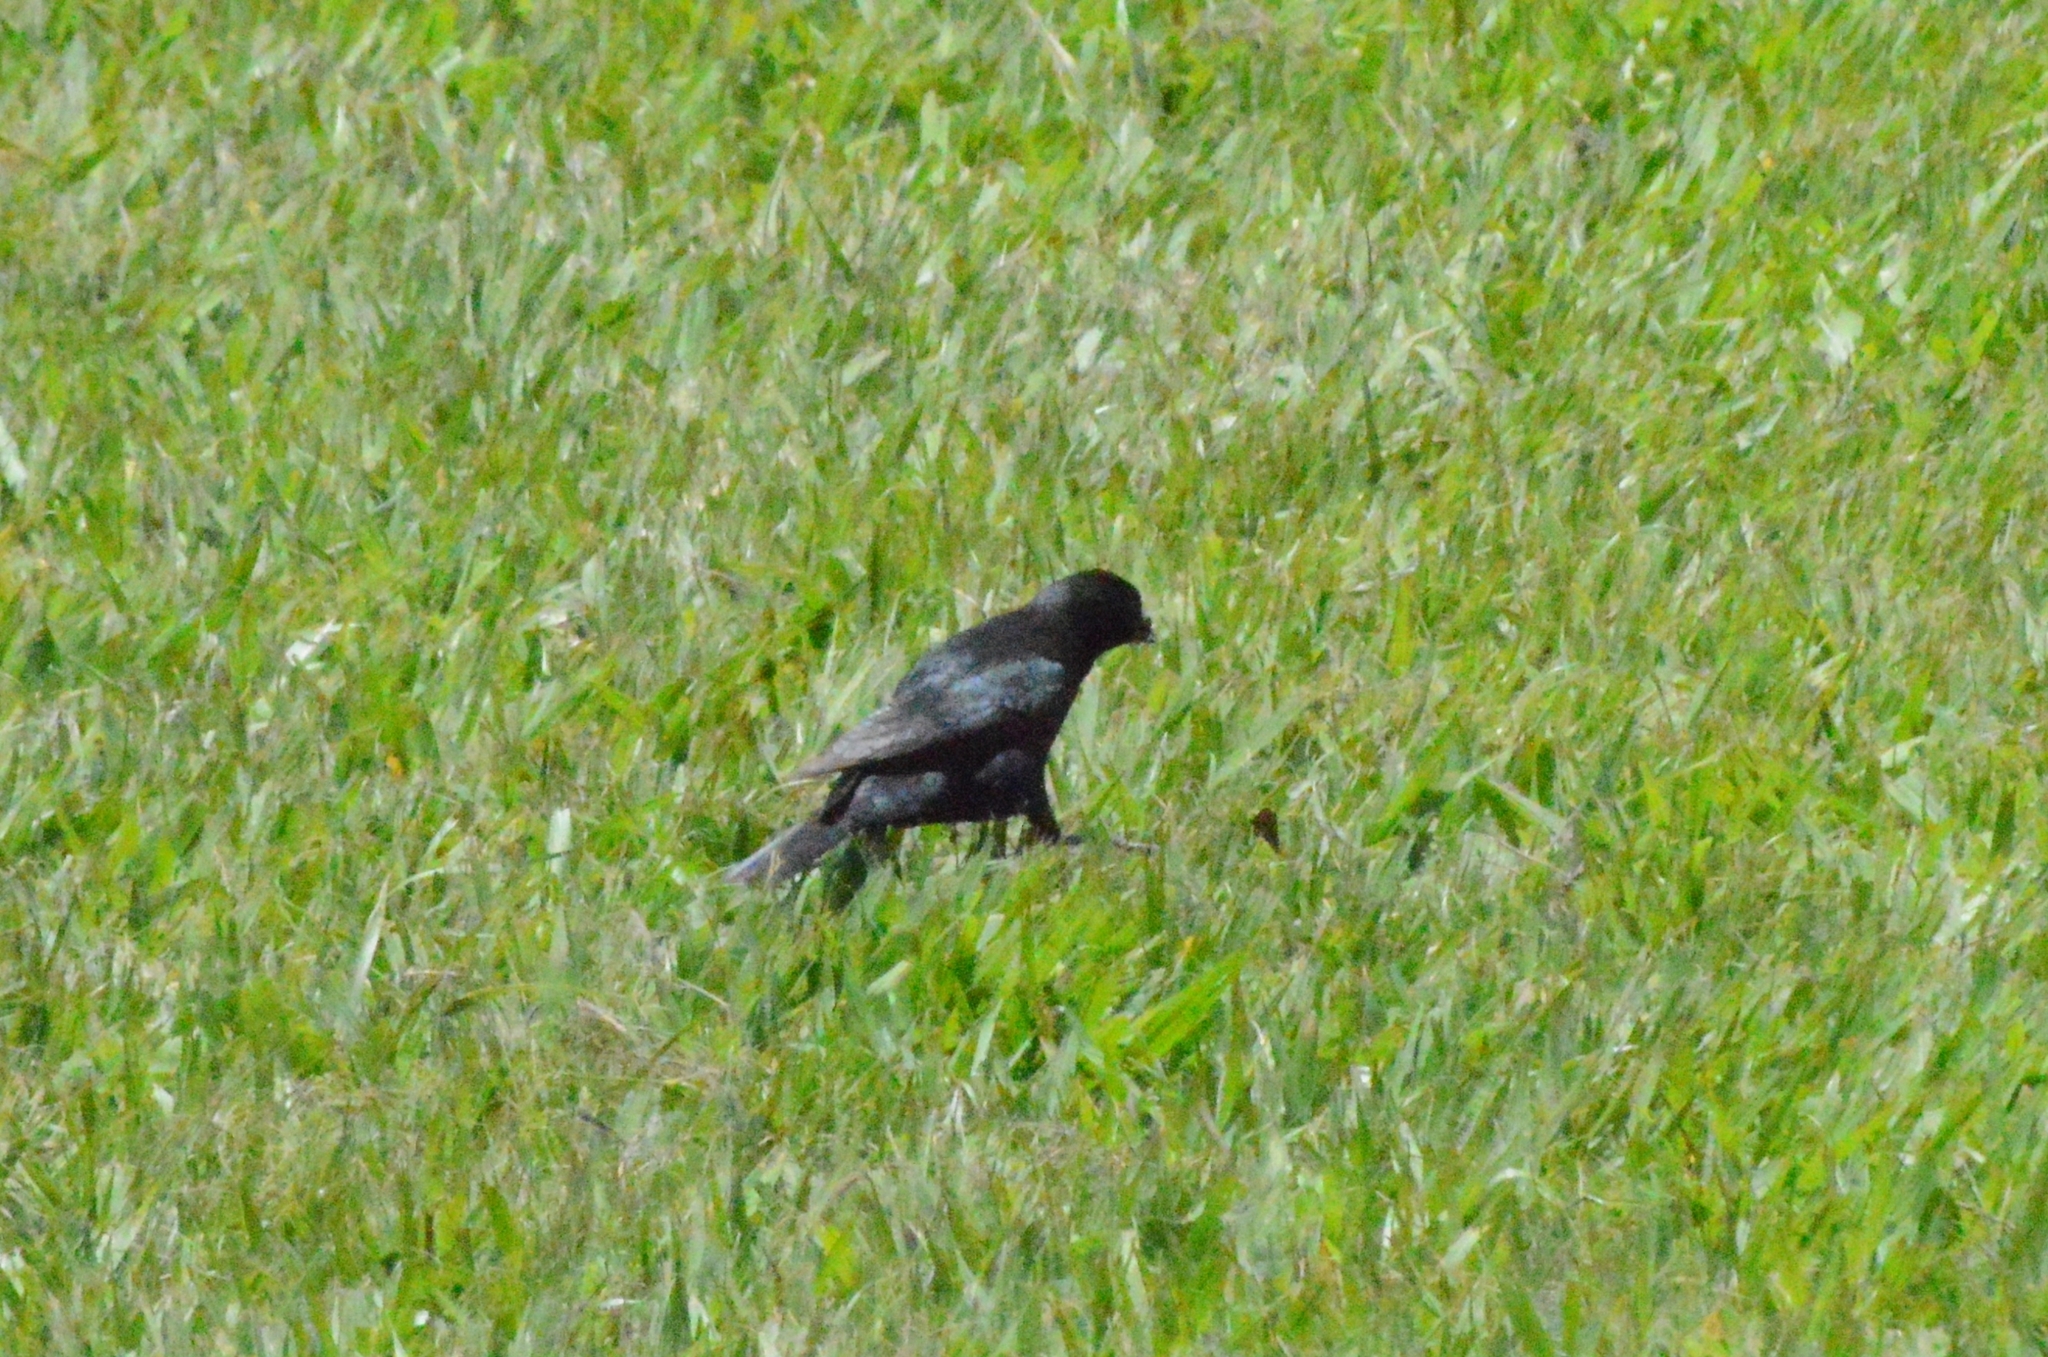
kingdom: Animalia
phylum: Chordata
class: Aves
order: Passeriformes
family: Icteridae
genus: Molothrus
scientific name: Molothrus bonariensis
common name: Shiny cowbird
